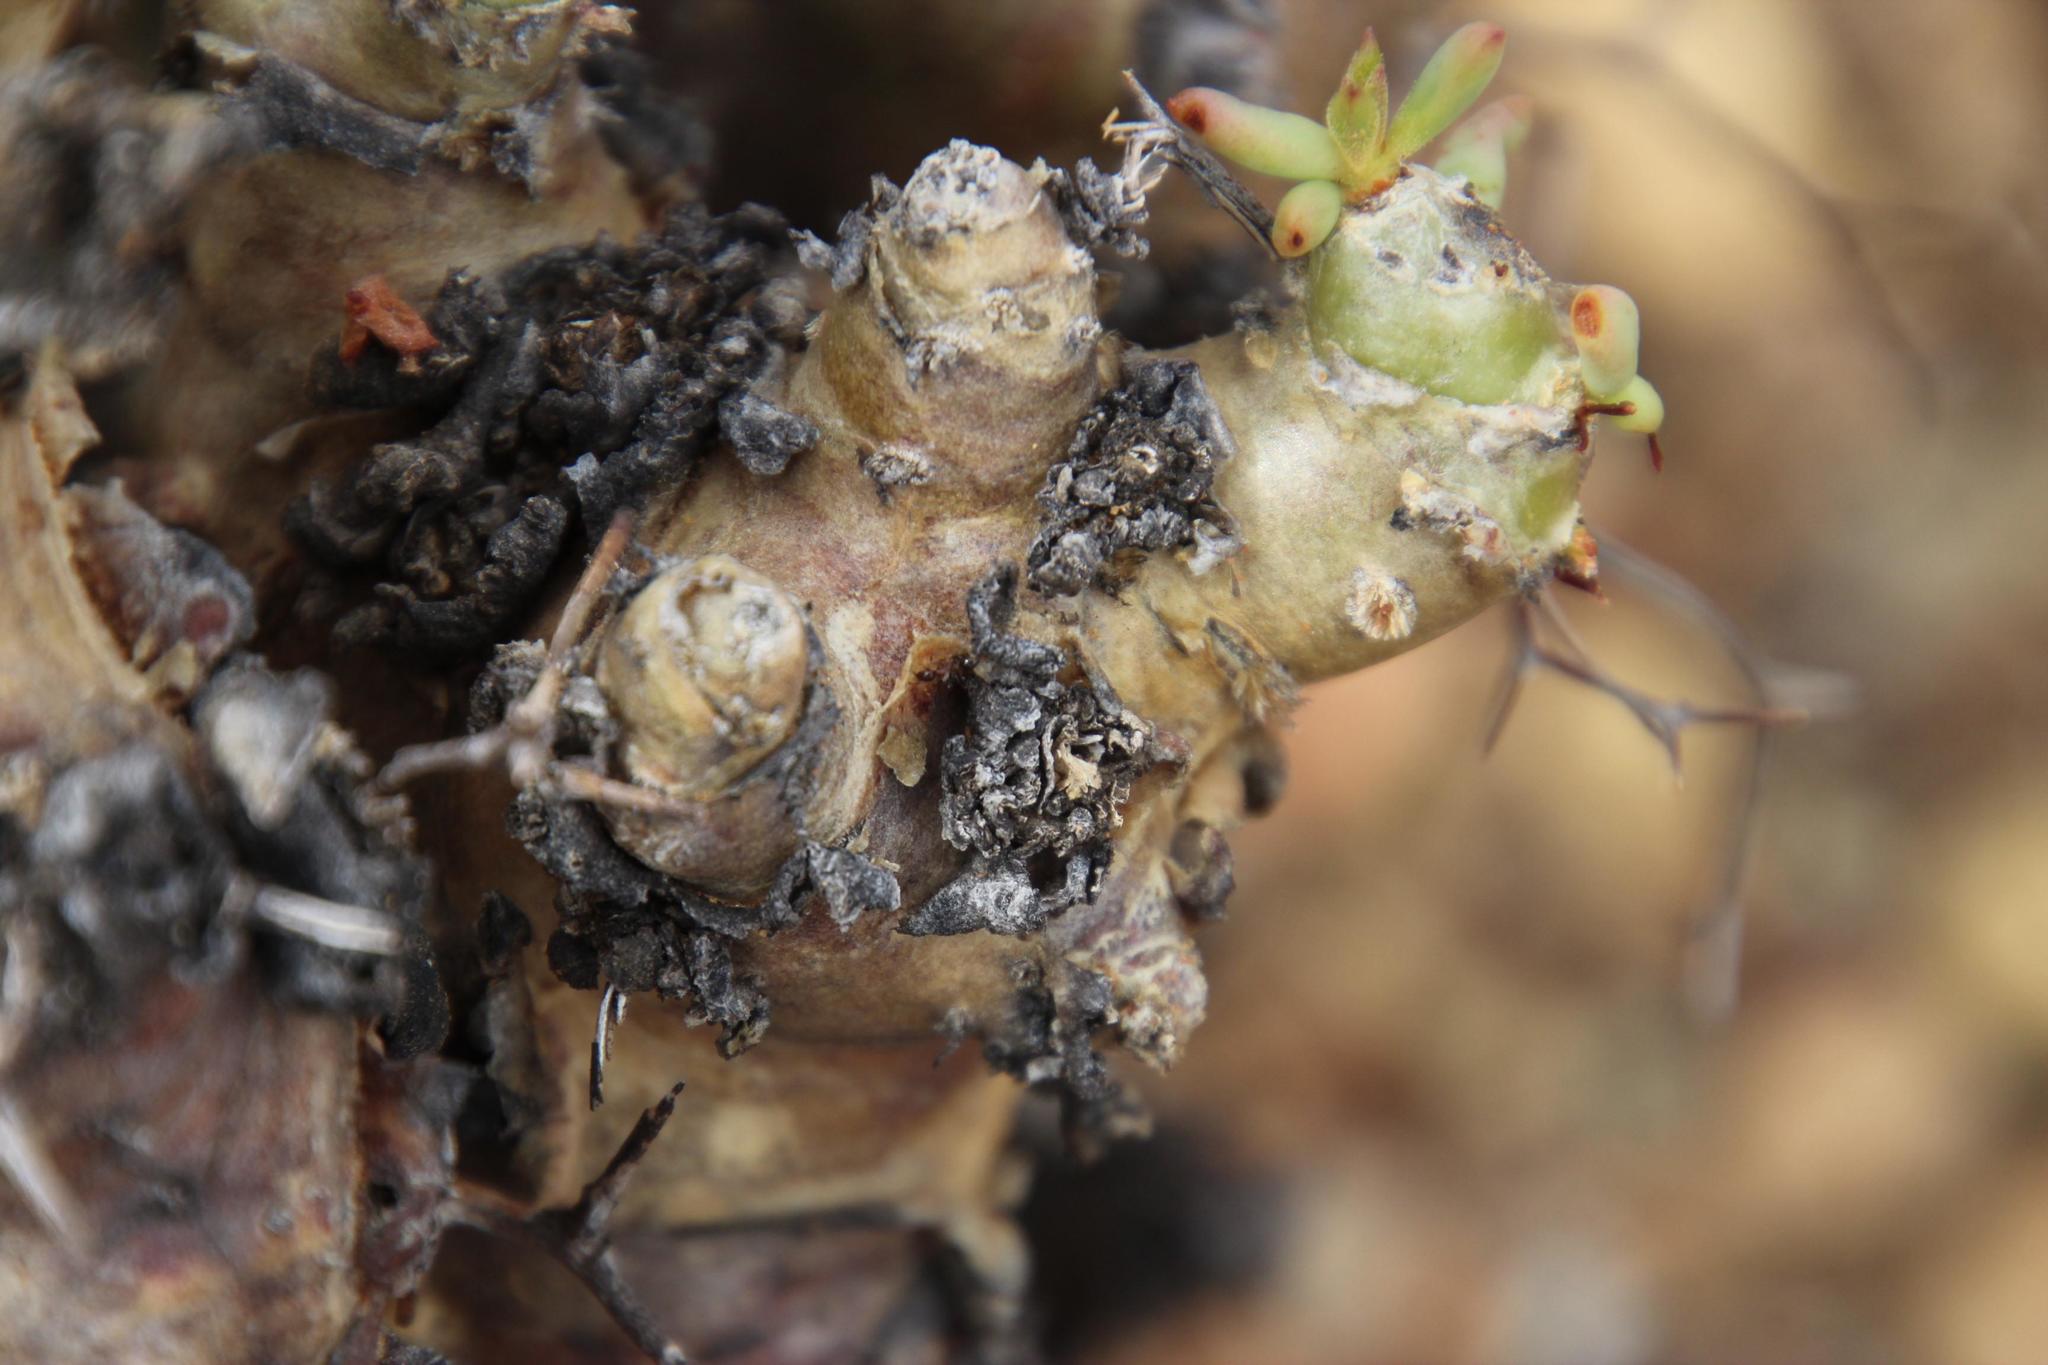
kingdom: Plantae
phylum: Tracheophyta
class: Magnoliopsida
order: Saxifragales
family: Crassulaceae
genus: Tylecodon
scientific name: Tylecodon reticulatus
